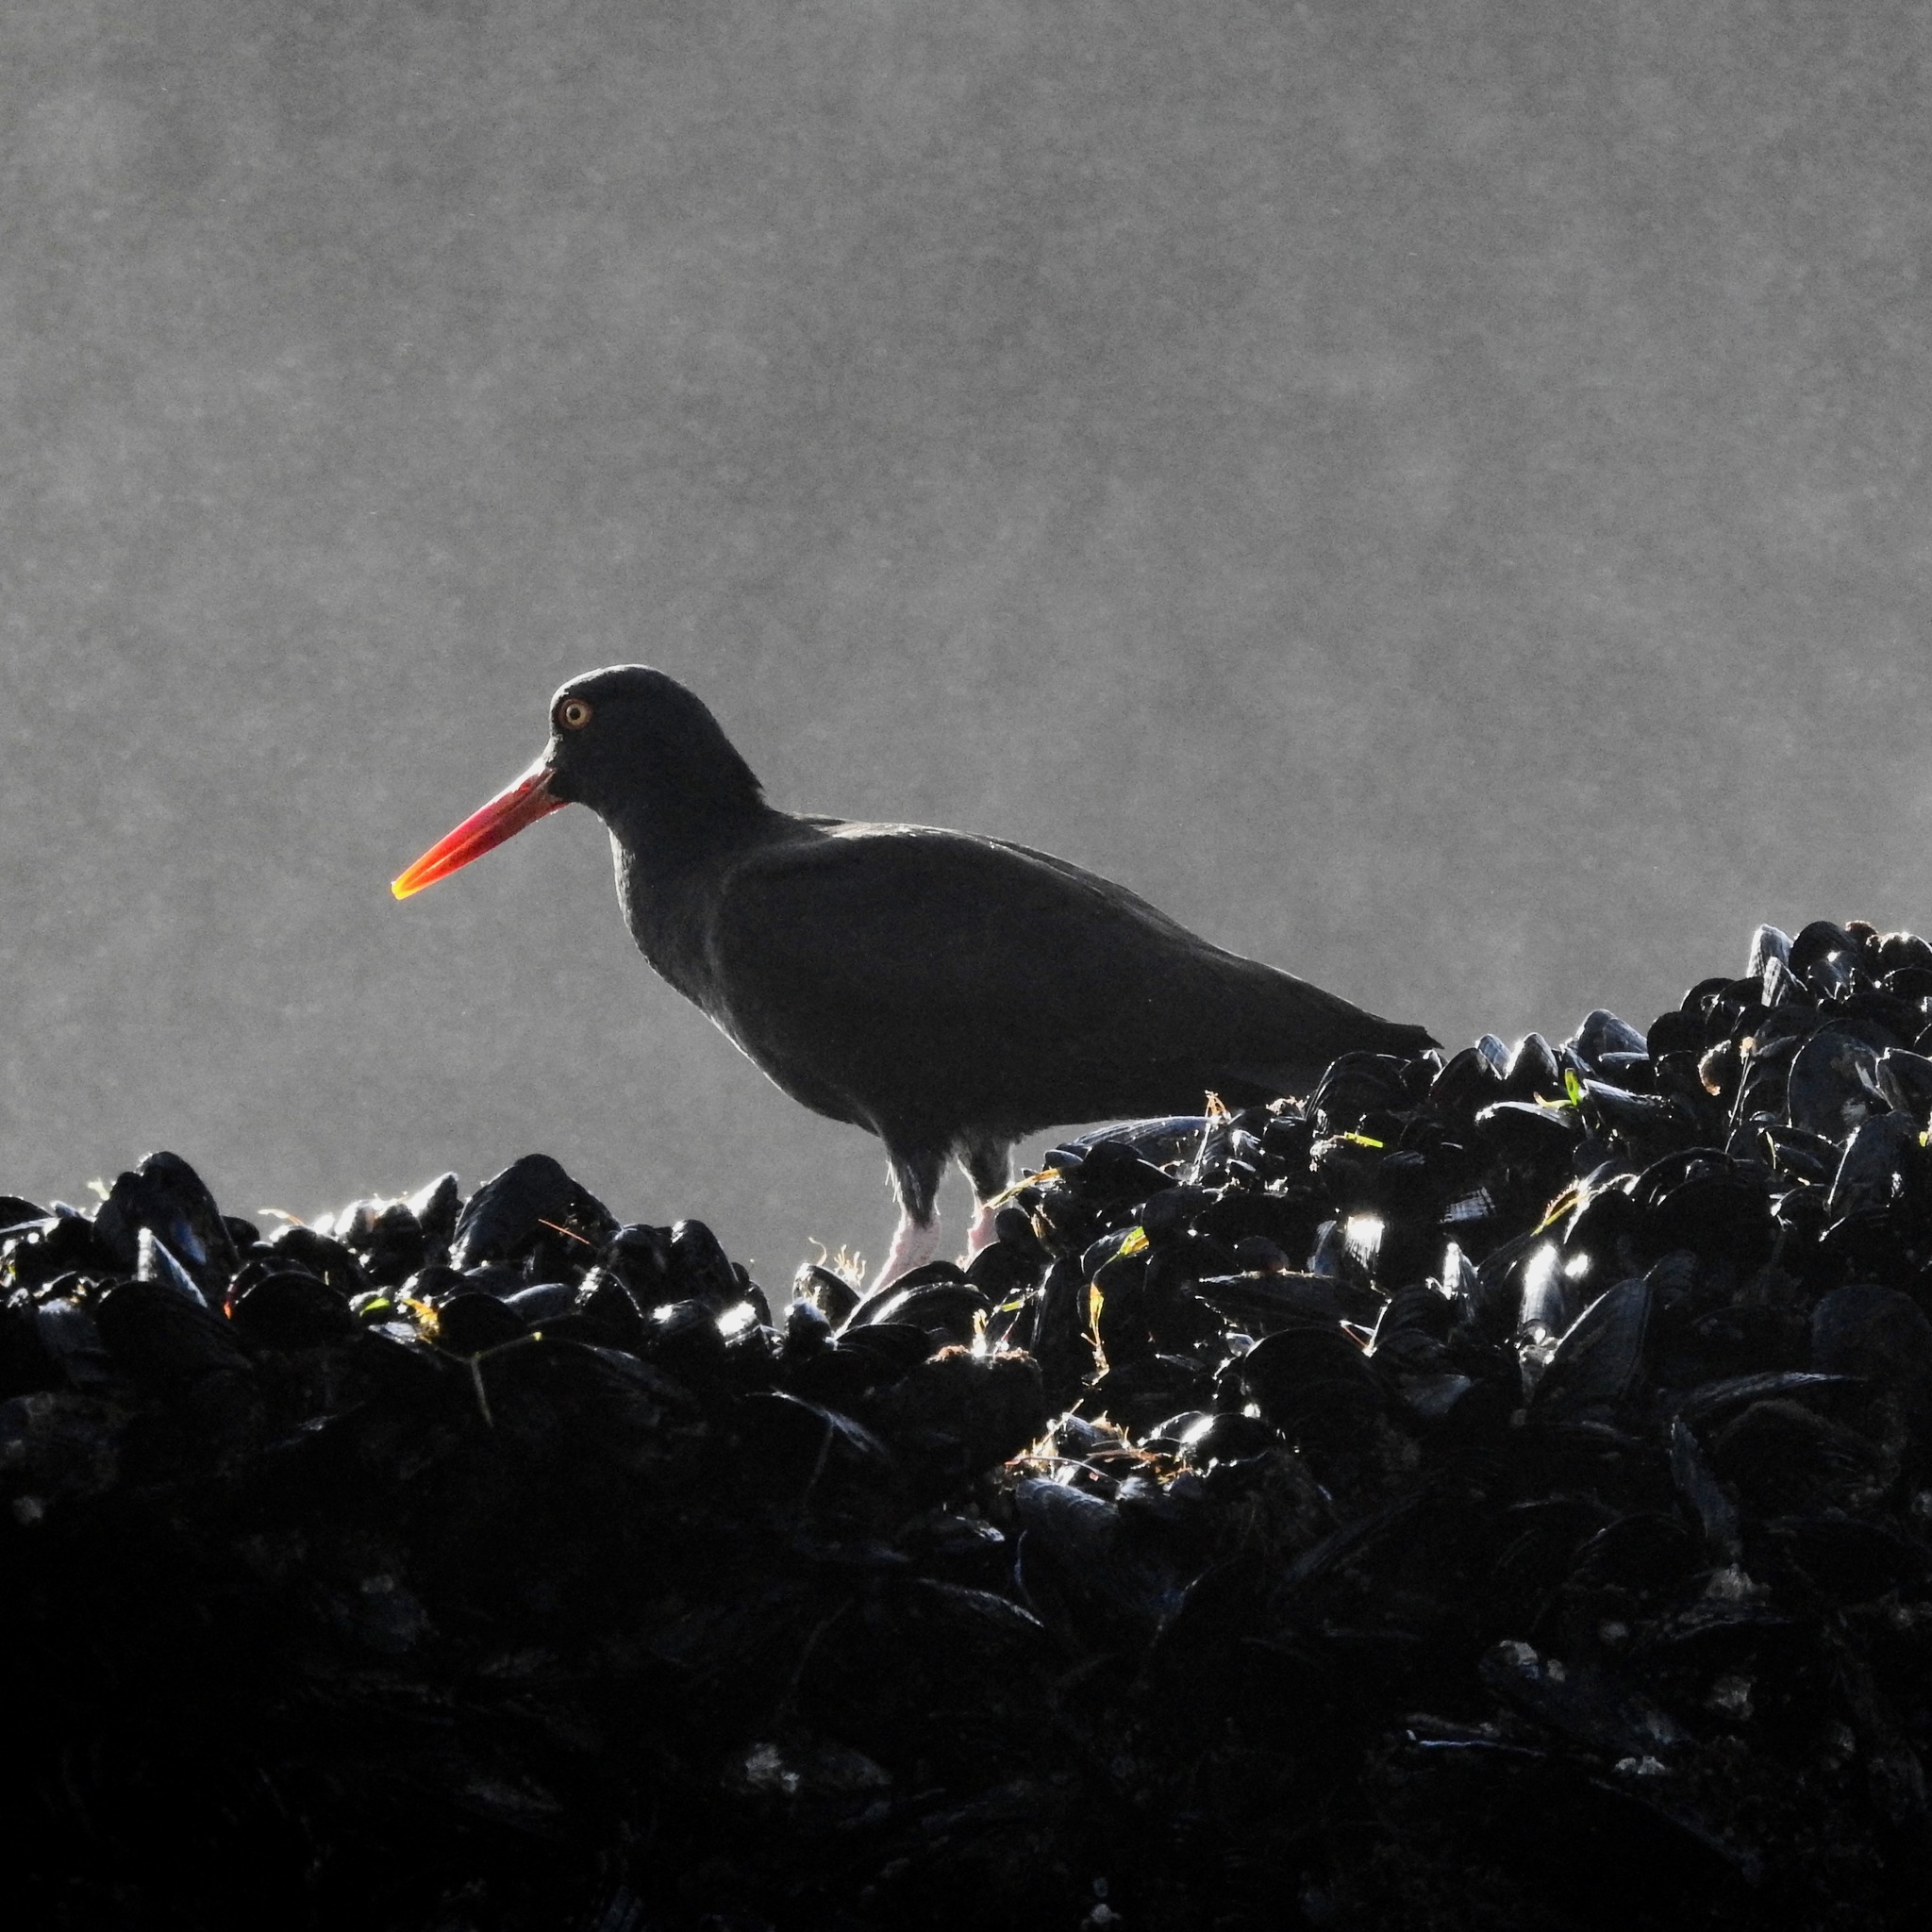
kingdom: Animalia
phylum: Chordata
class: Aves
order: Charadriiformes
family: Haematopodidae
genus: Haematopus
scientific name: Haematopus bachmani
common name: Black oystercatcher
